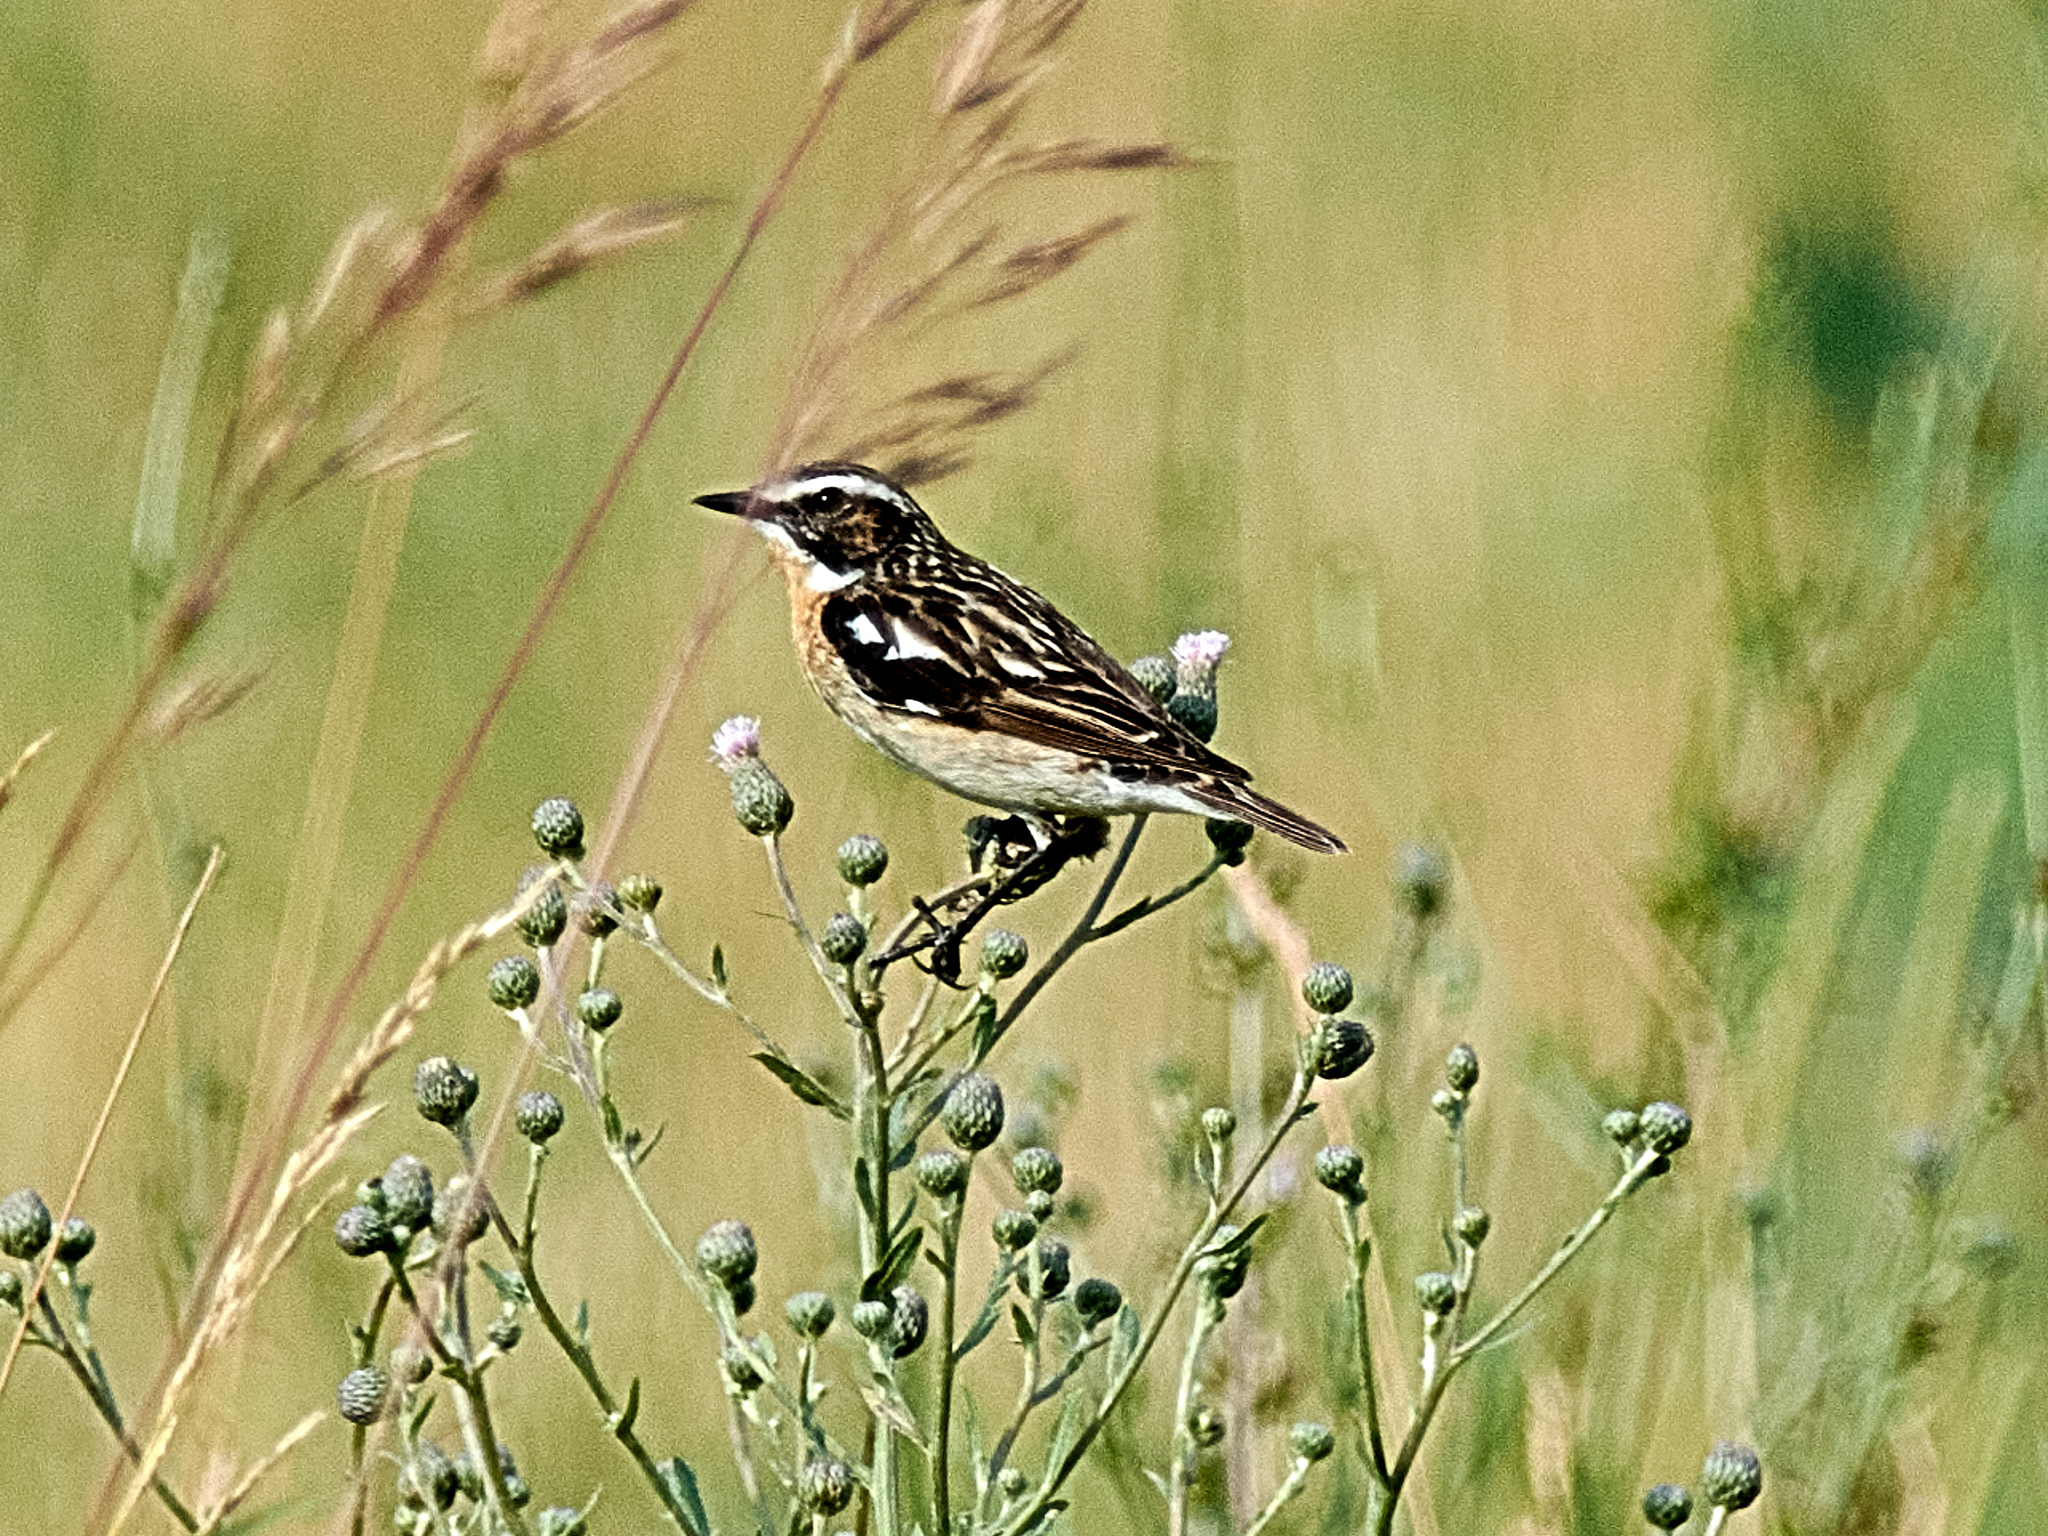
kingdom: Animalia
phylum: Chordata
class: Aves
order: Passeriformes
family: Muscicapidae
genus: Saxicola
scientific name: Saxicola rubetra
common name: Whinchat
